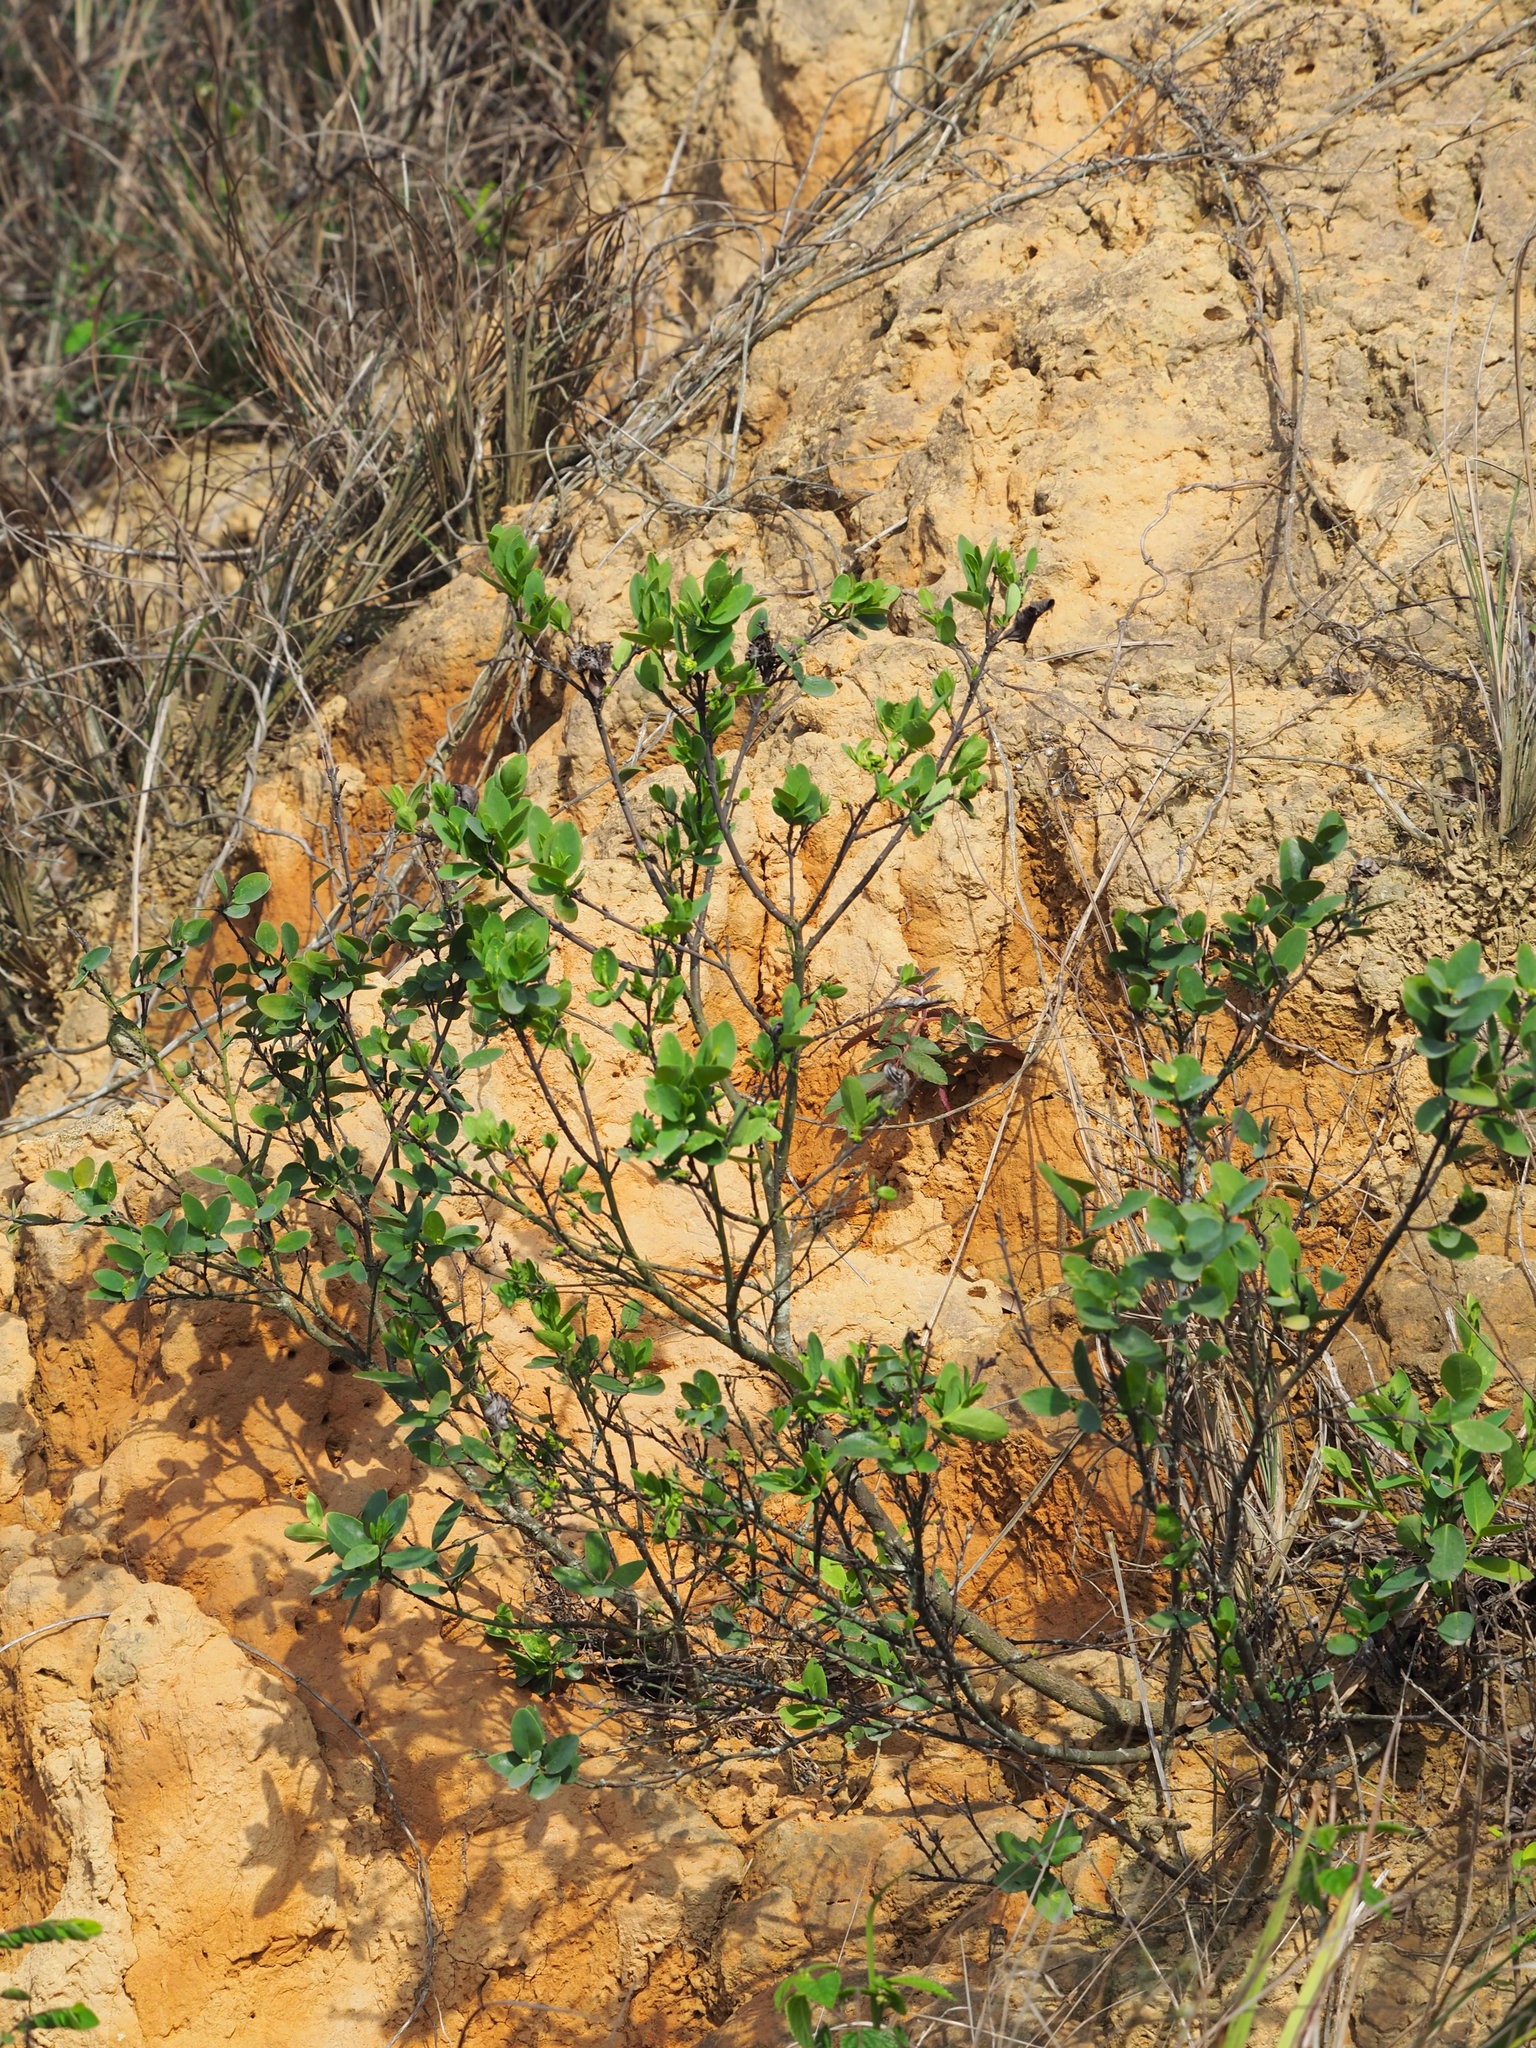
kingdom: Plantae
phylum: Tracheophyta
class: Magnoliopsida
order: Malvales
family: Thymelaeaceae
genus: Wikstroemia
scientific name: Wikstroemia indica
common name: Tiebush
